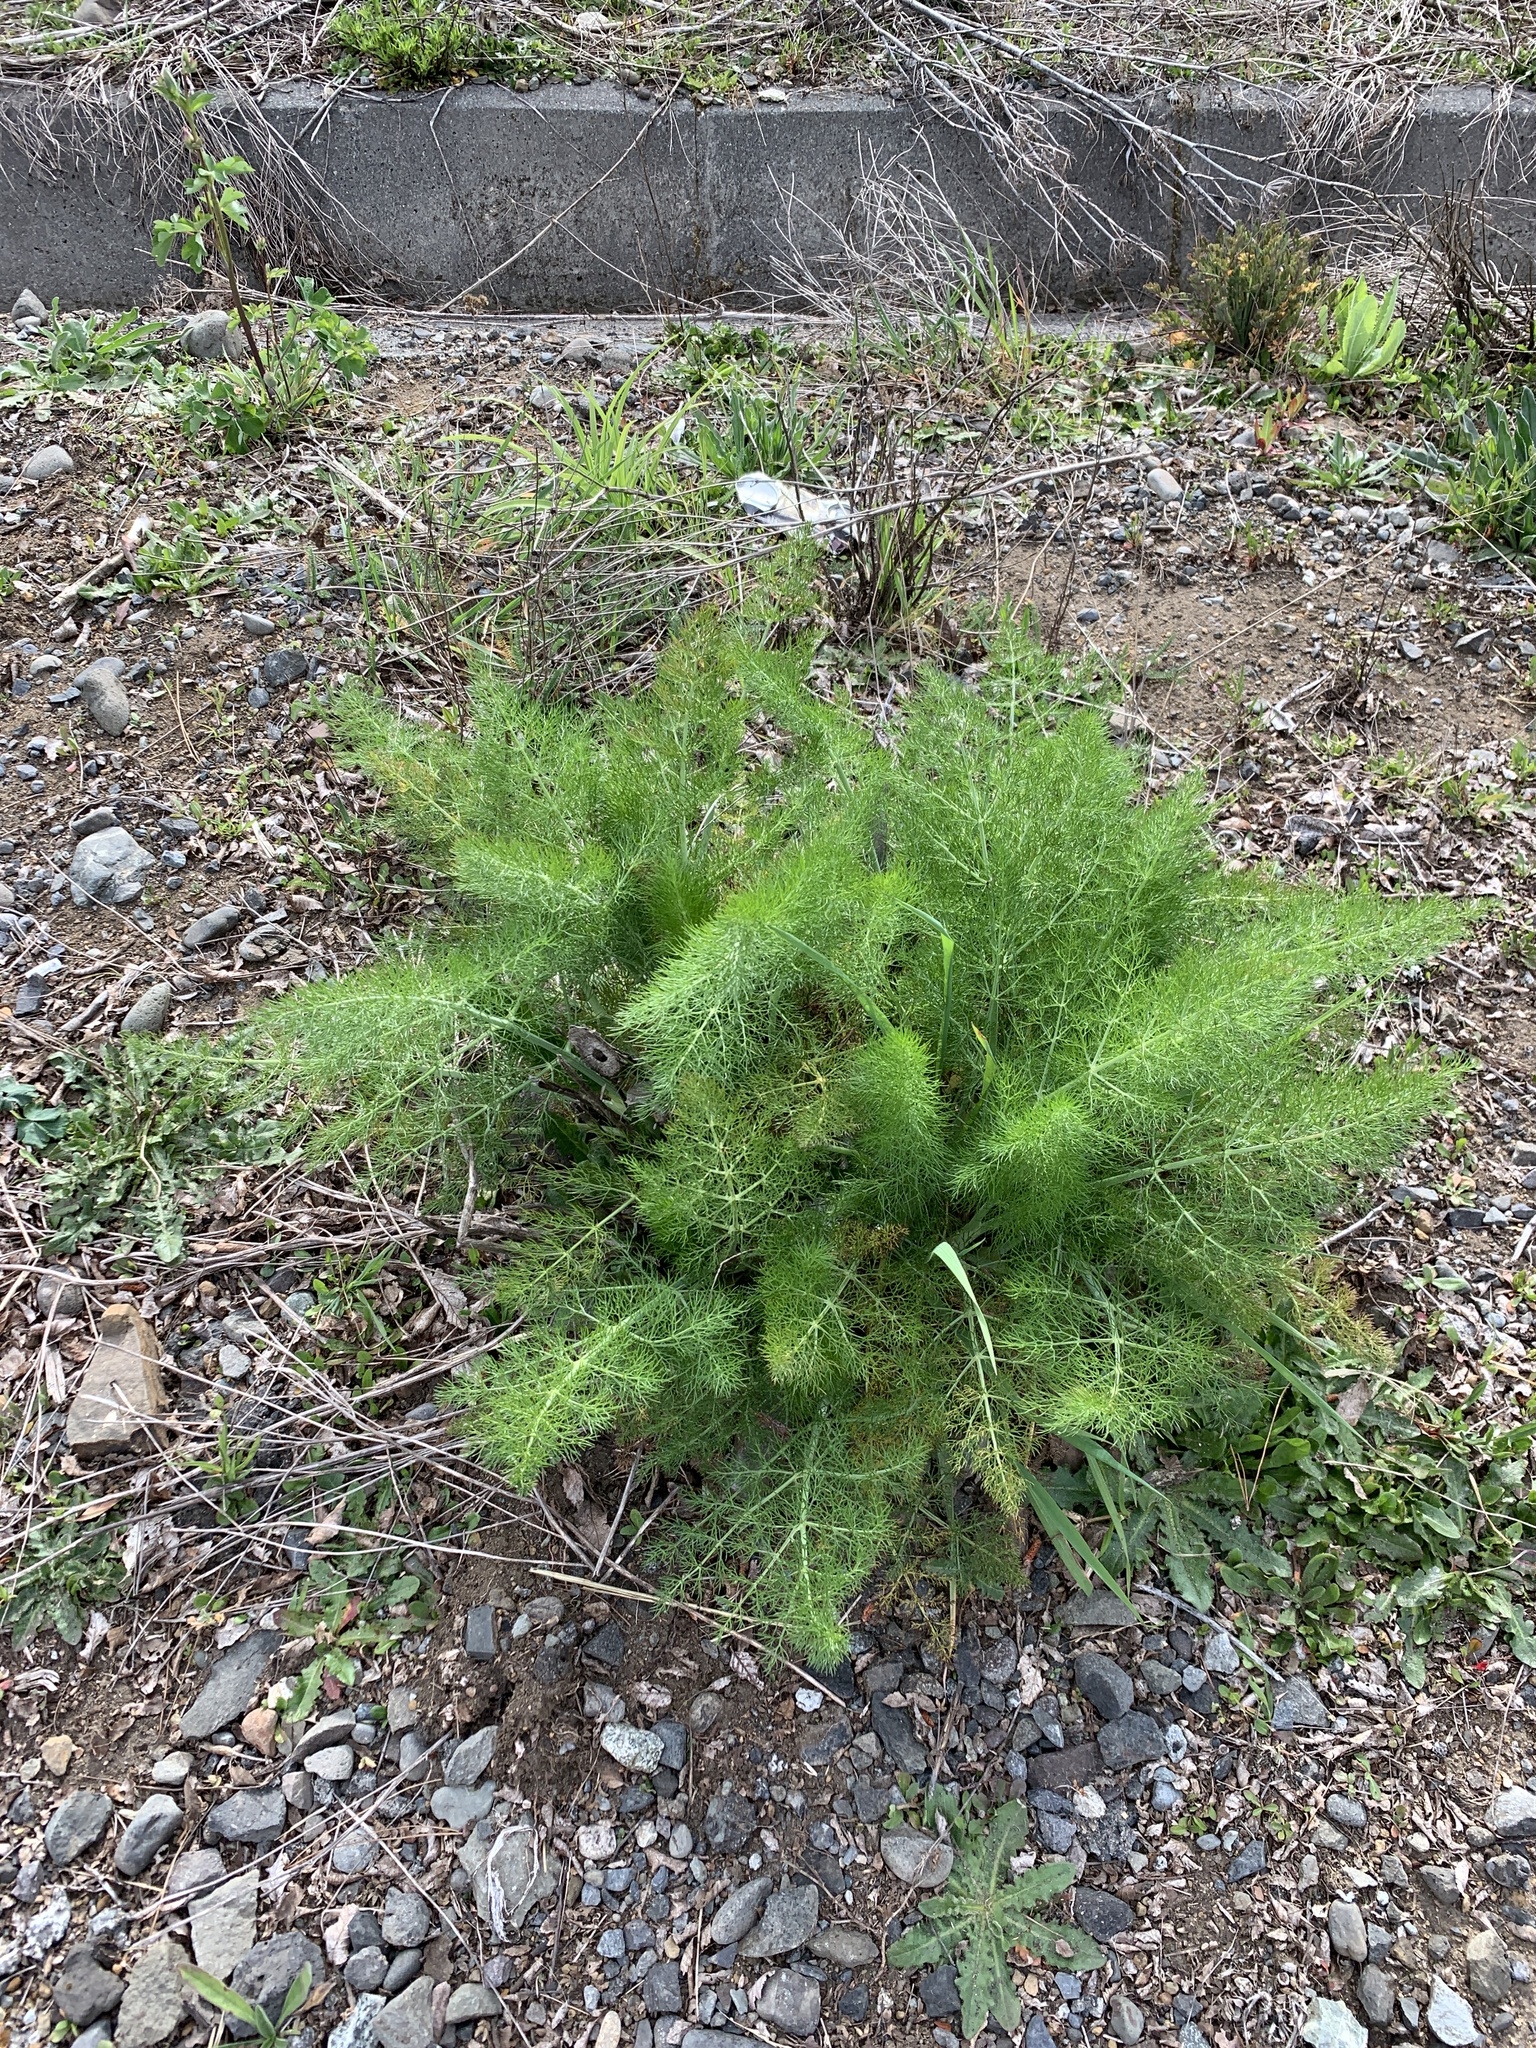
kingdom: Plantae
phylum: Tracheophyta
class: Magnoliopsida
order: Apiales
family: Apiaceae
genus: Foeniculum
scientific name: Foeniculum vulgare
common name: Fennel
